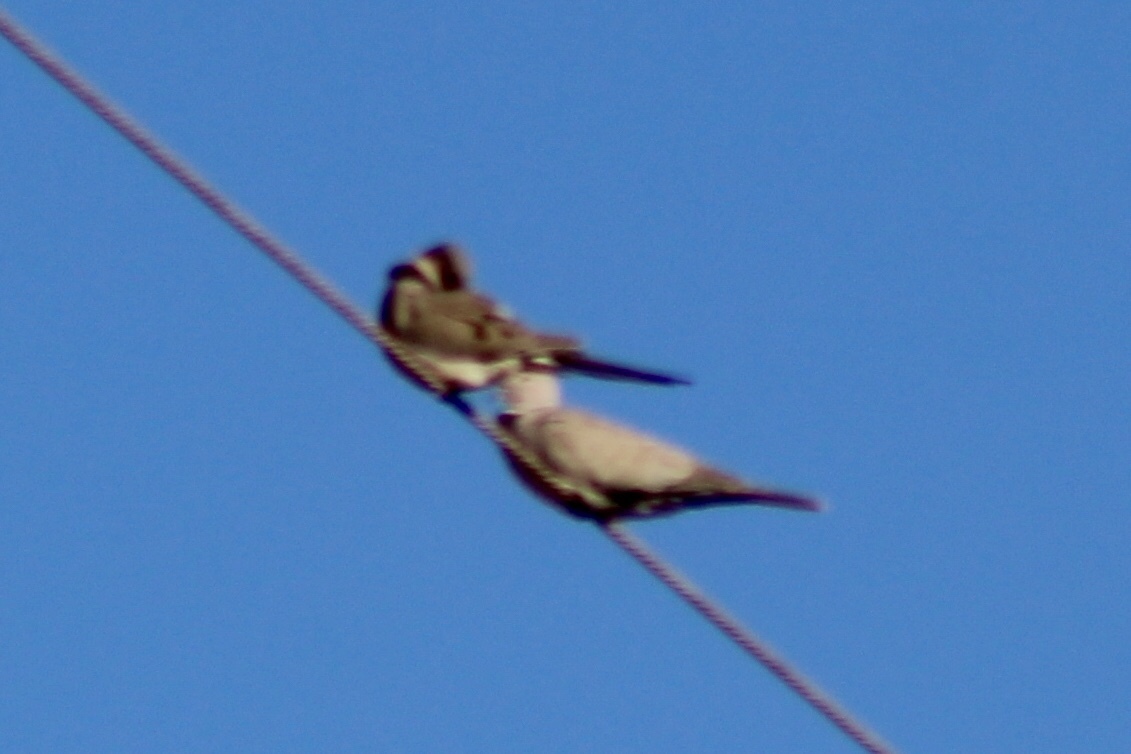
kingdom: Animalia
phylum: Chordata
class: Aves
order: Columbiformes
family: Columbidae
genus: Zenaida
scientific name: Zenaida macroura
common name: Mourning dove
